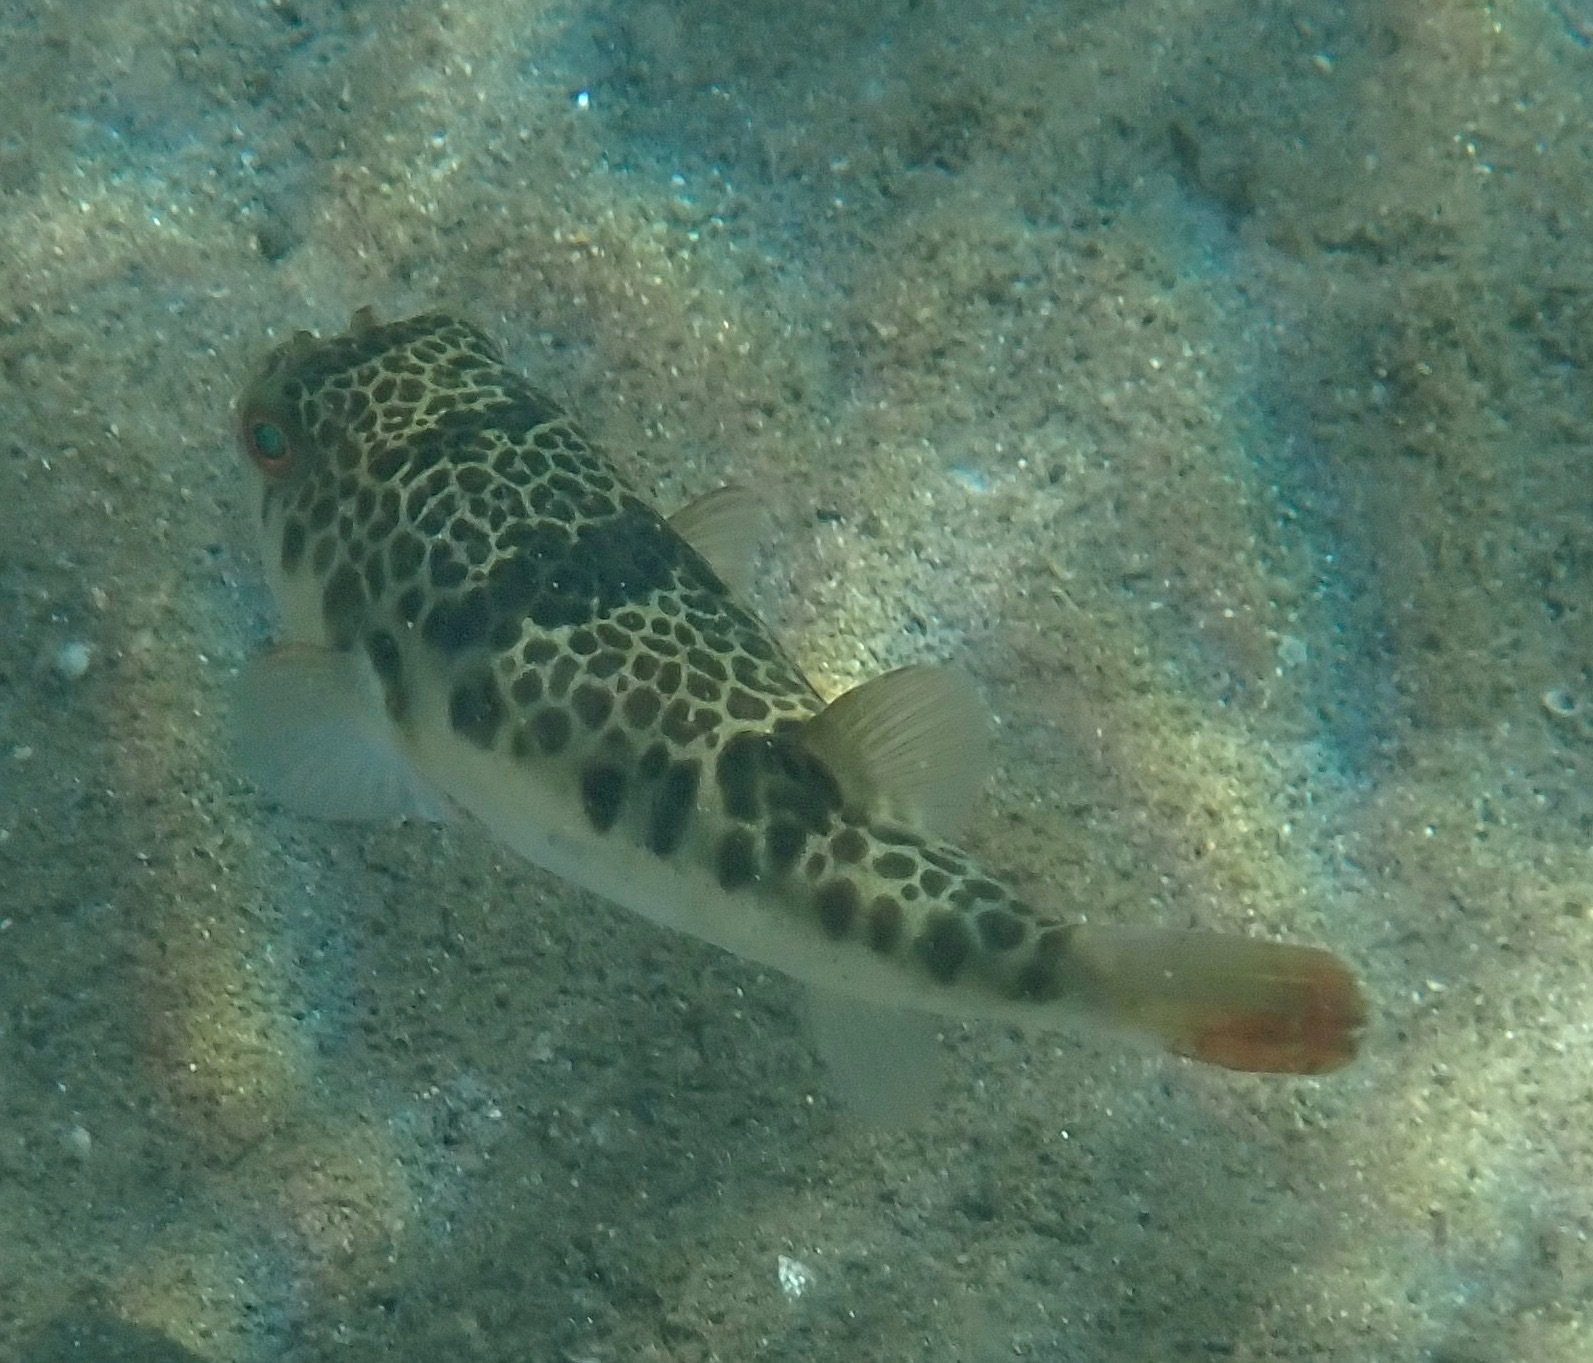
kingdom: Animalia
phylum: Chordata
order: Tetraodontiformes
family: Tetraodontidae
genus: Tetractenos
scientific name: Tetractenos glaber
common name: Smooth toadfish
